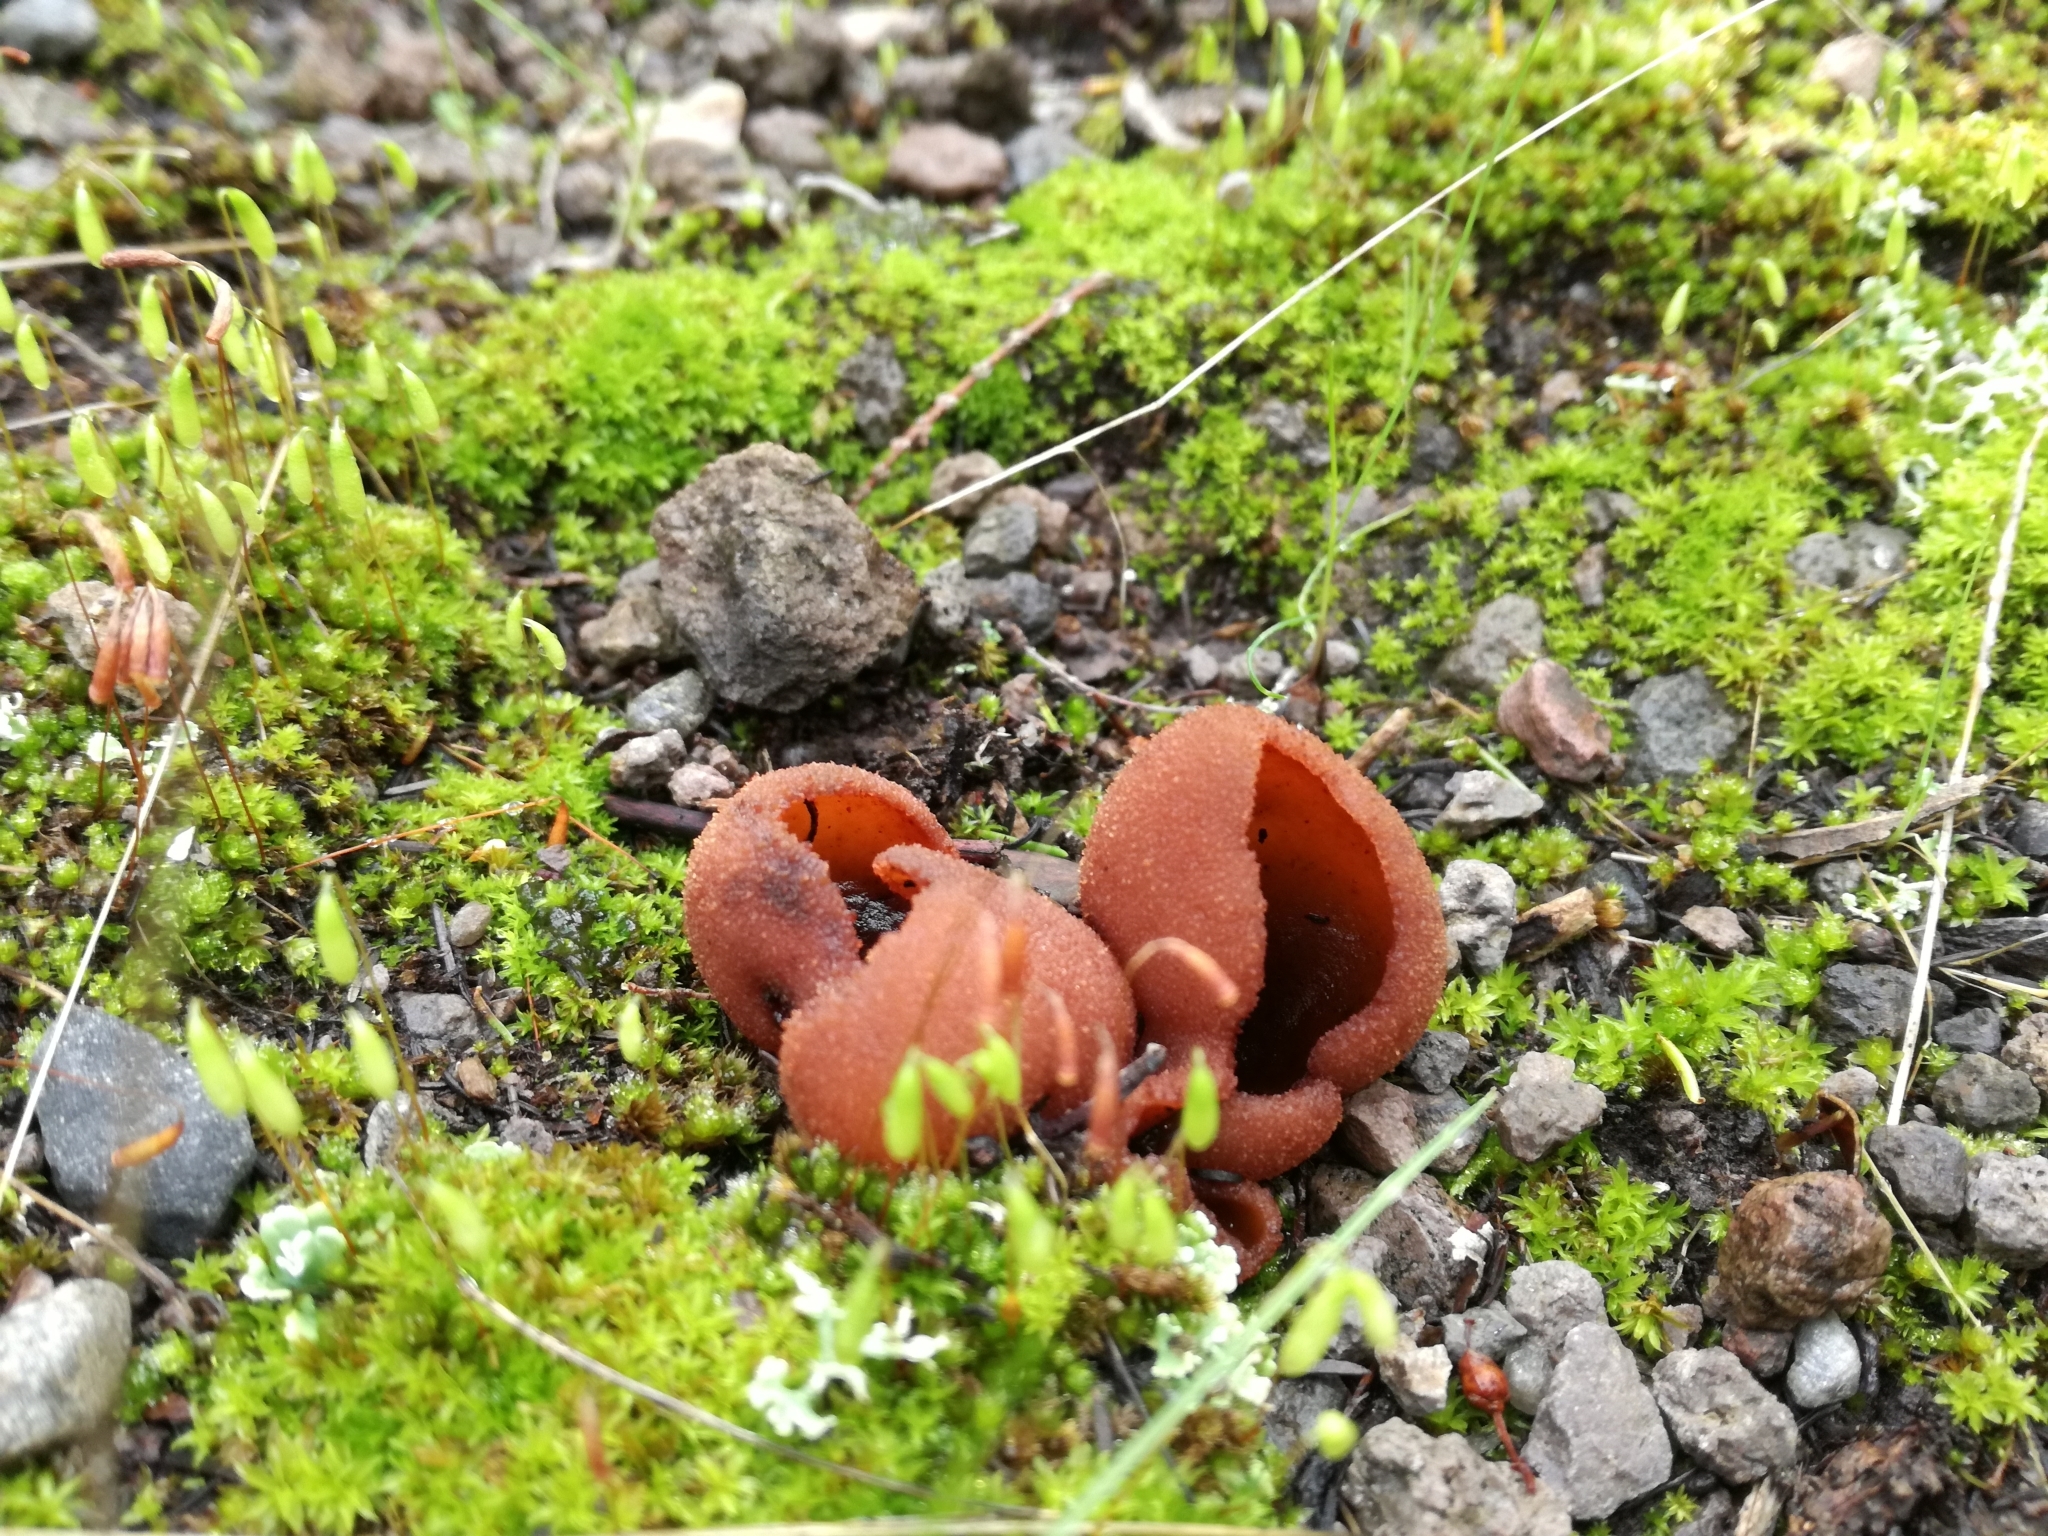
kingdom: Fungi
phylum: Ascomycota
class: Pezizomycetes
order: Pezizales
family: Pezizaceae
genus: Peziza
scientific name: Peziza saccardoana
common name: Pouch cup
